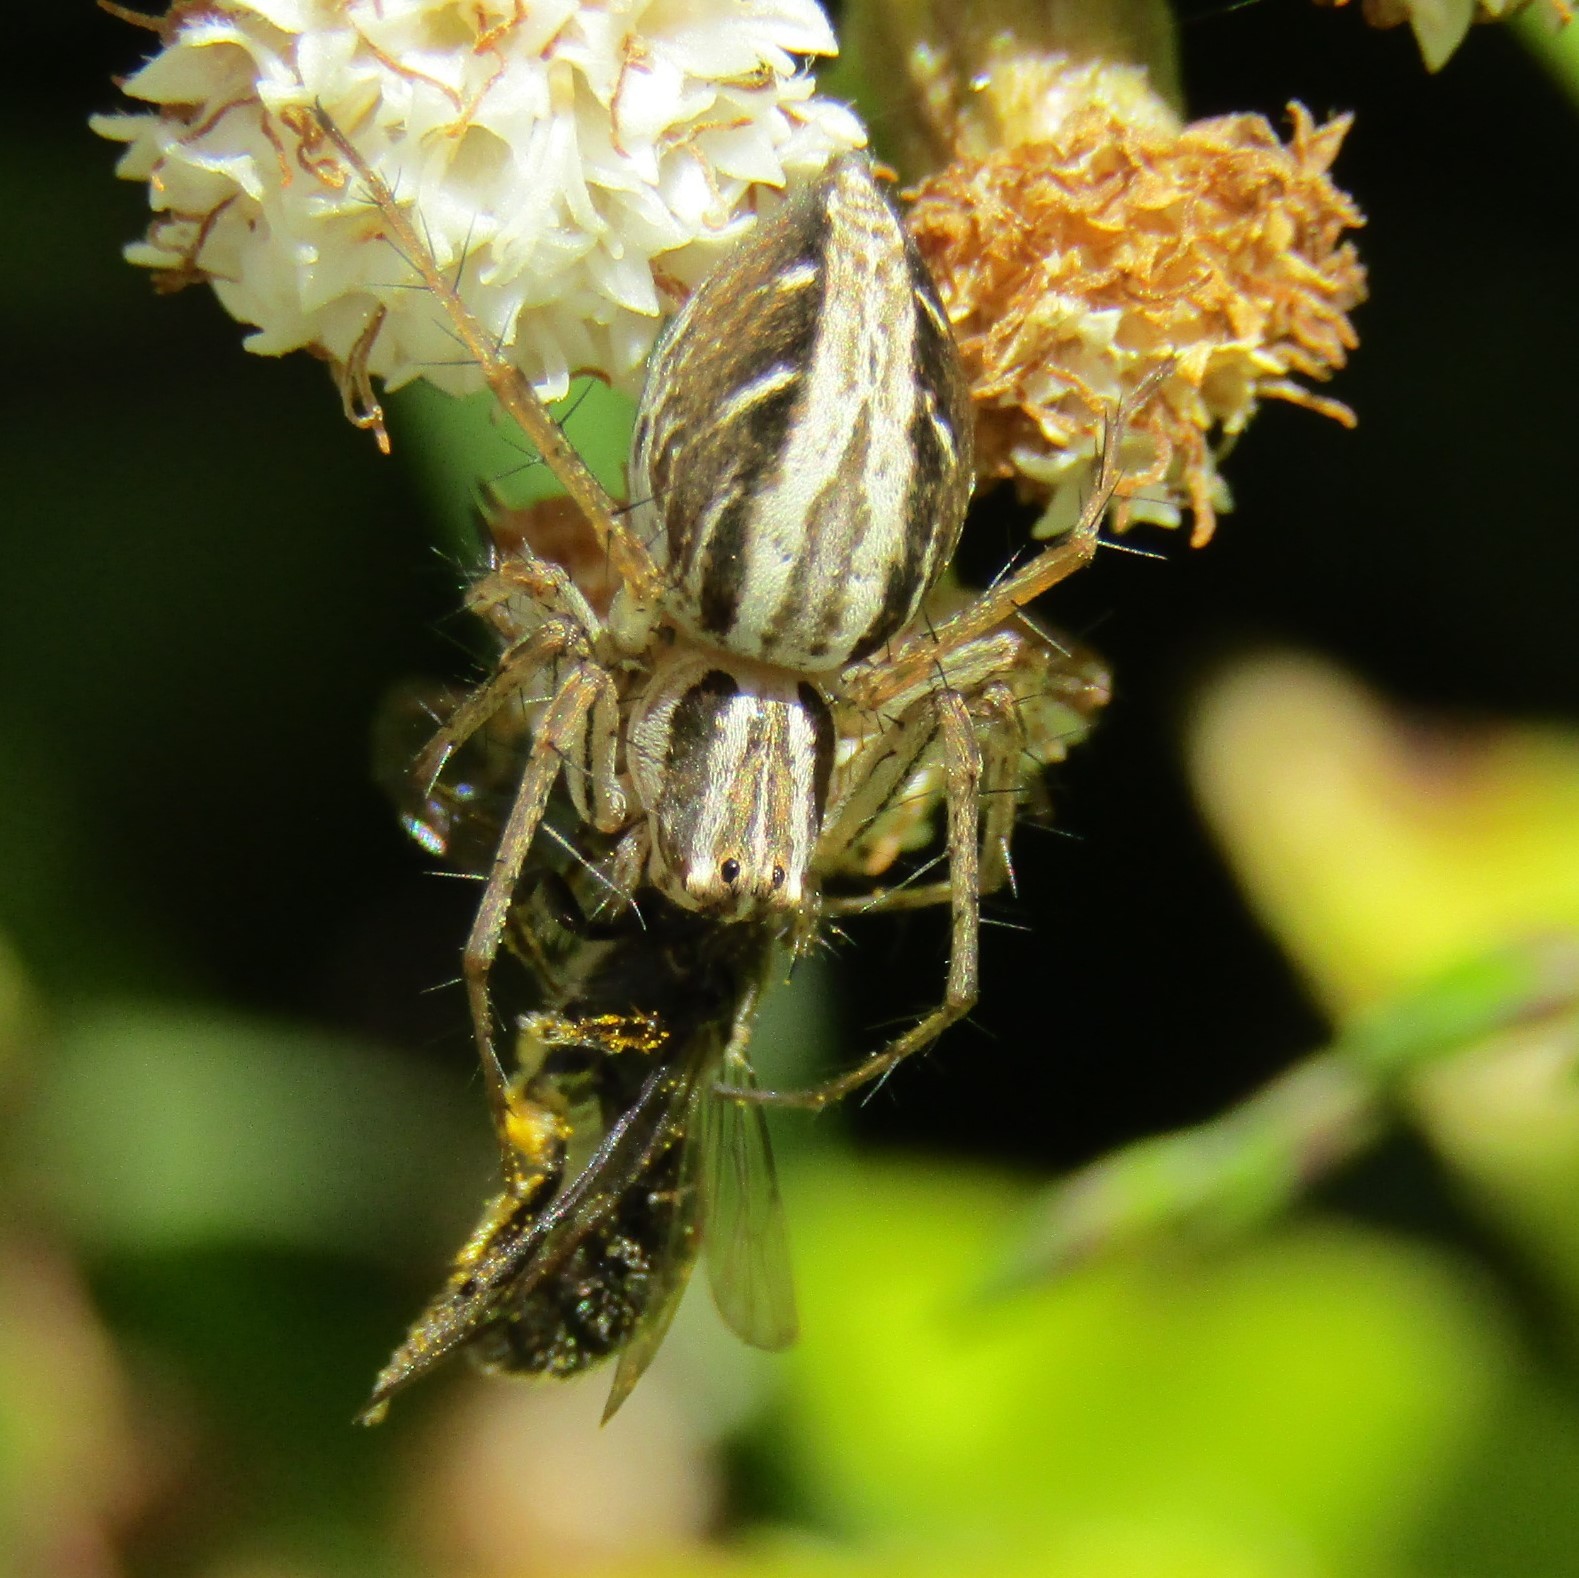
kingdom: Animalia
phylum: Arthropoda
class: Arachnida
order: Araneae
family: Oxyopidae
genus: Oxyopes
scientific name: Oxyopes gracilipes
